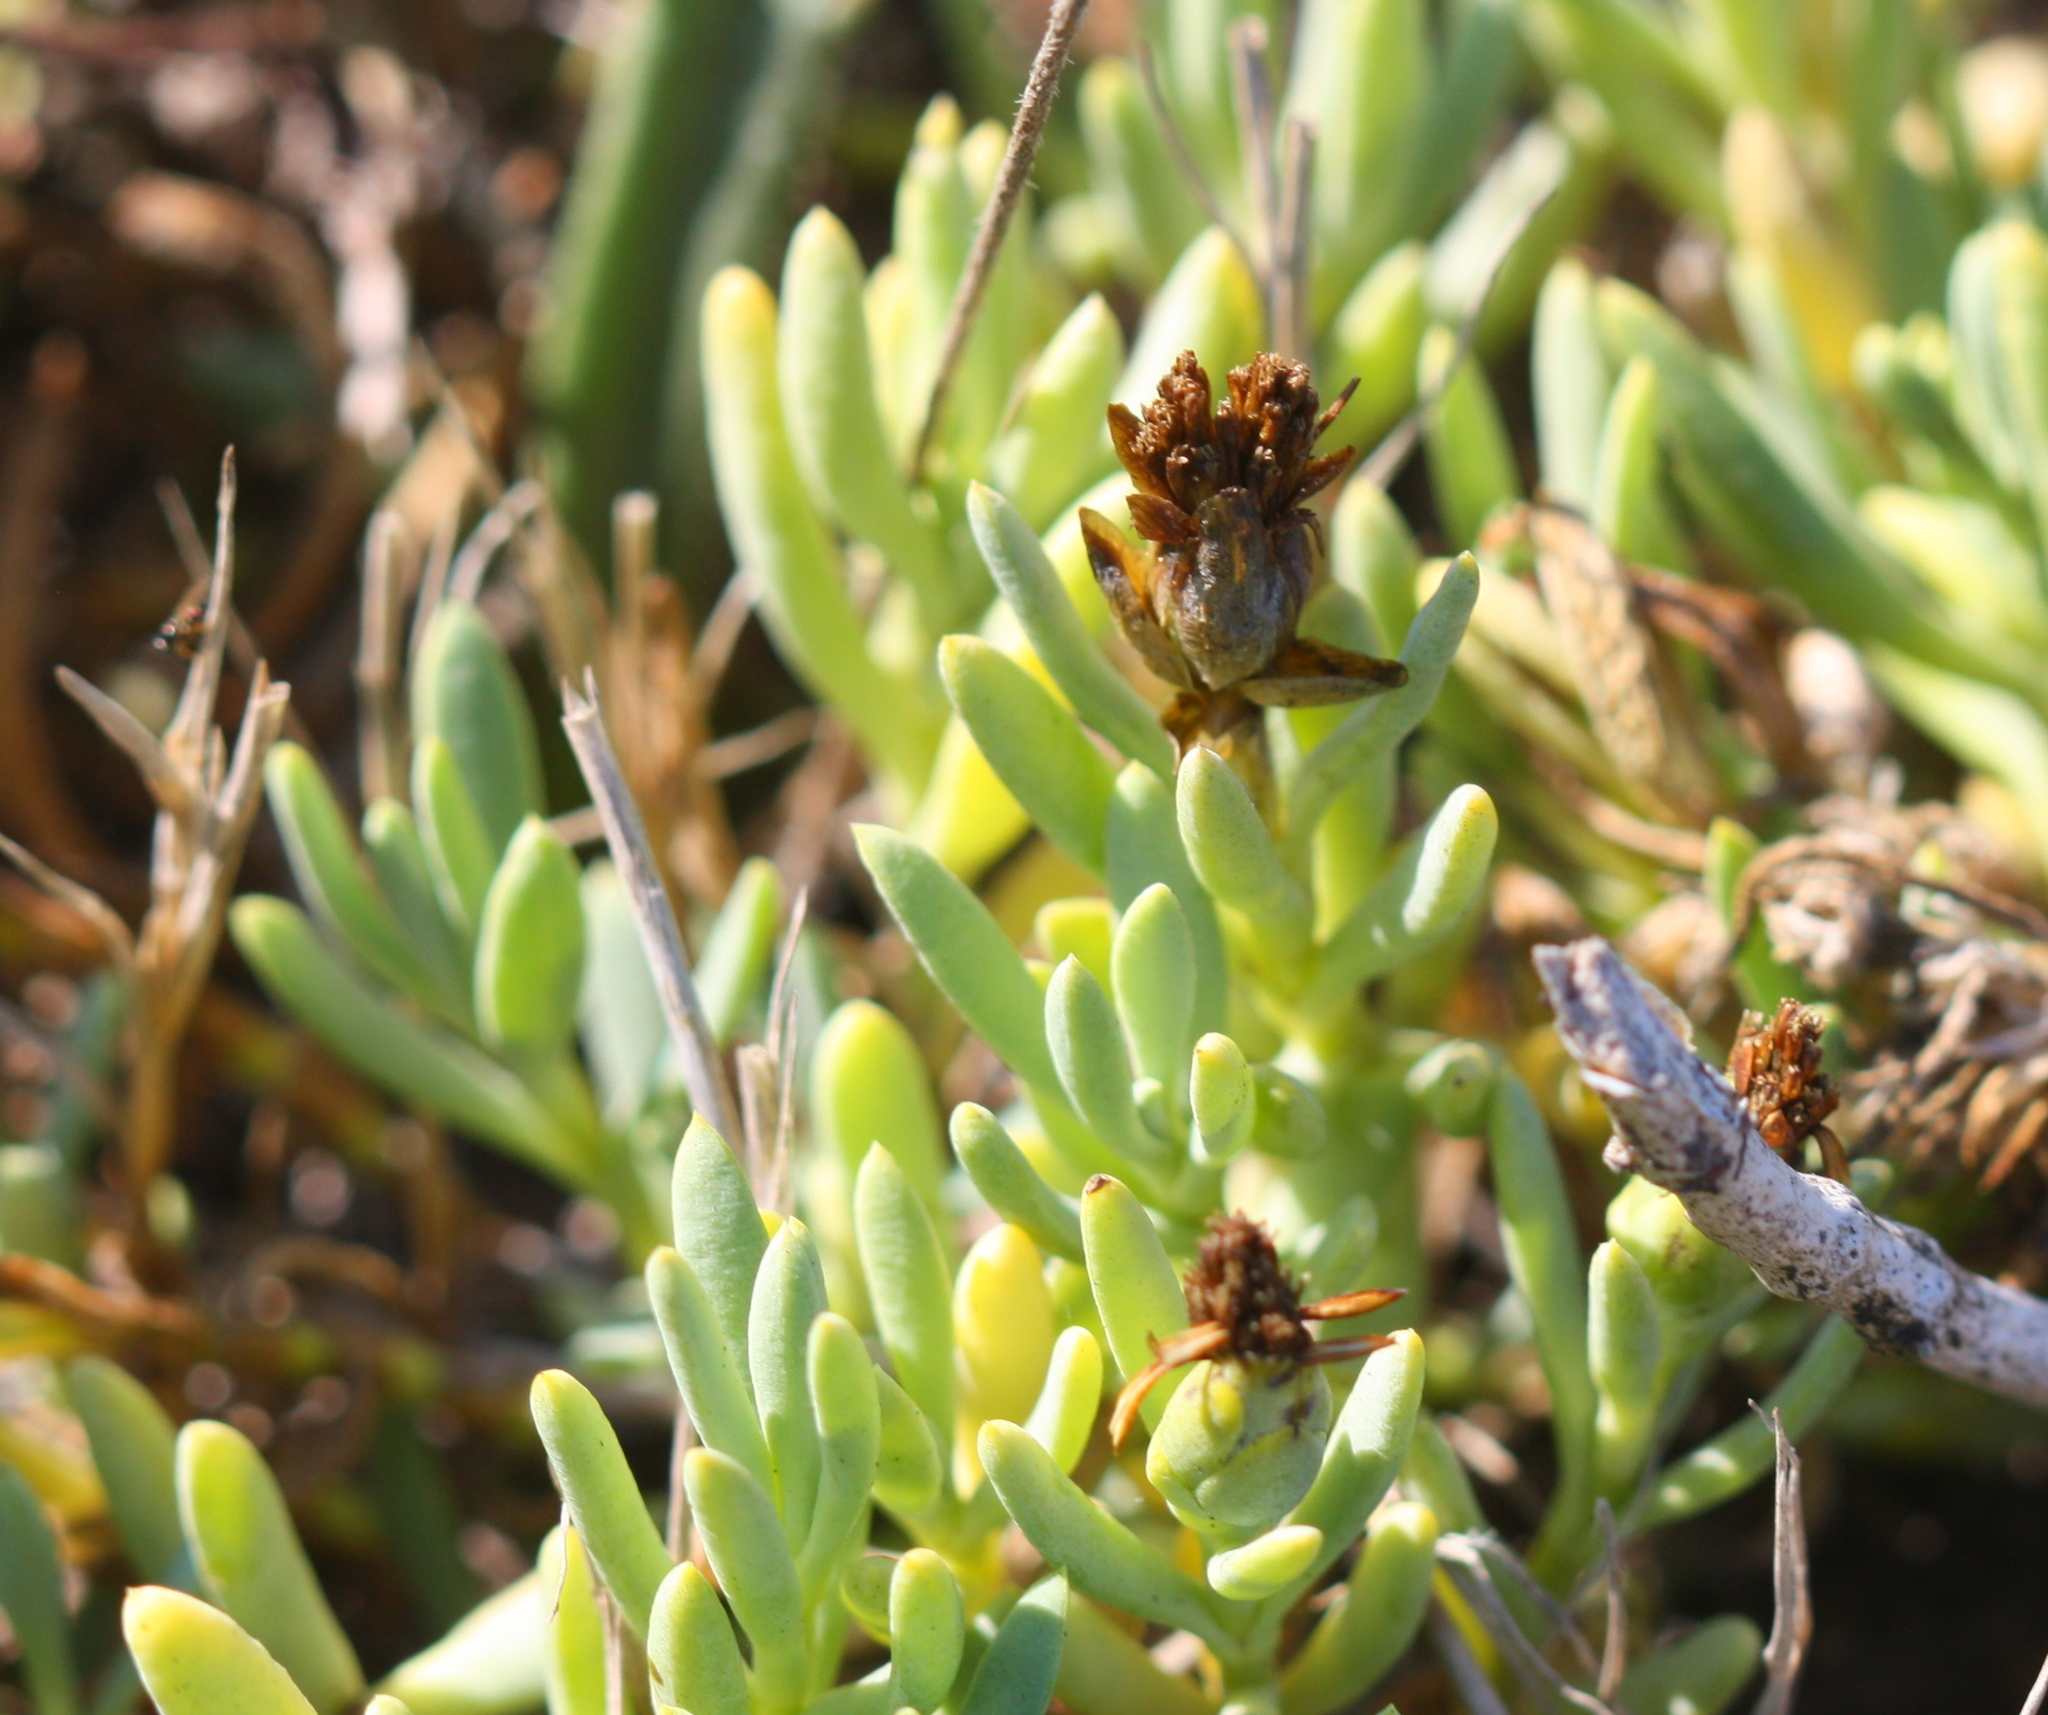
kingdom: Plantae
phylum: Tracheophyta
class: Magnoliopsida
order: Asterales
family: Asteraceae
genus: Jaumea
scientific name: Jaumea carnosa
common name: Fleshy jaumea
